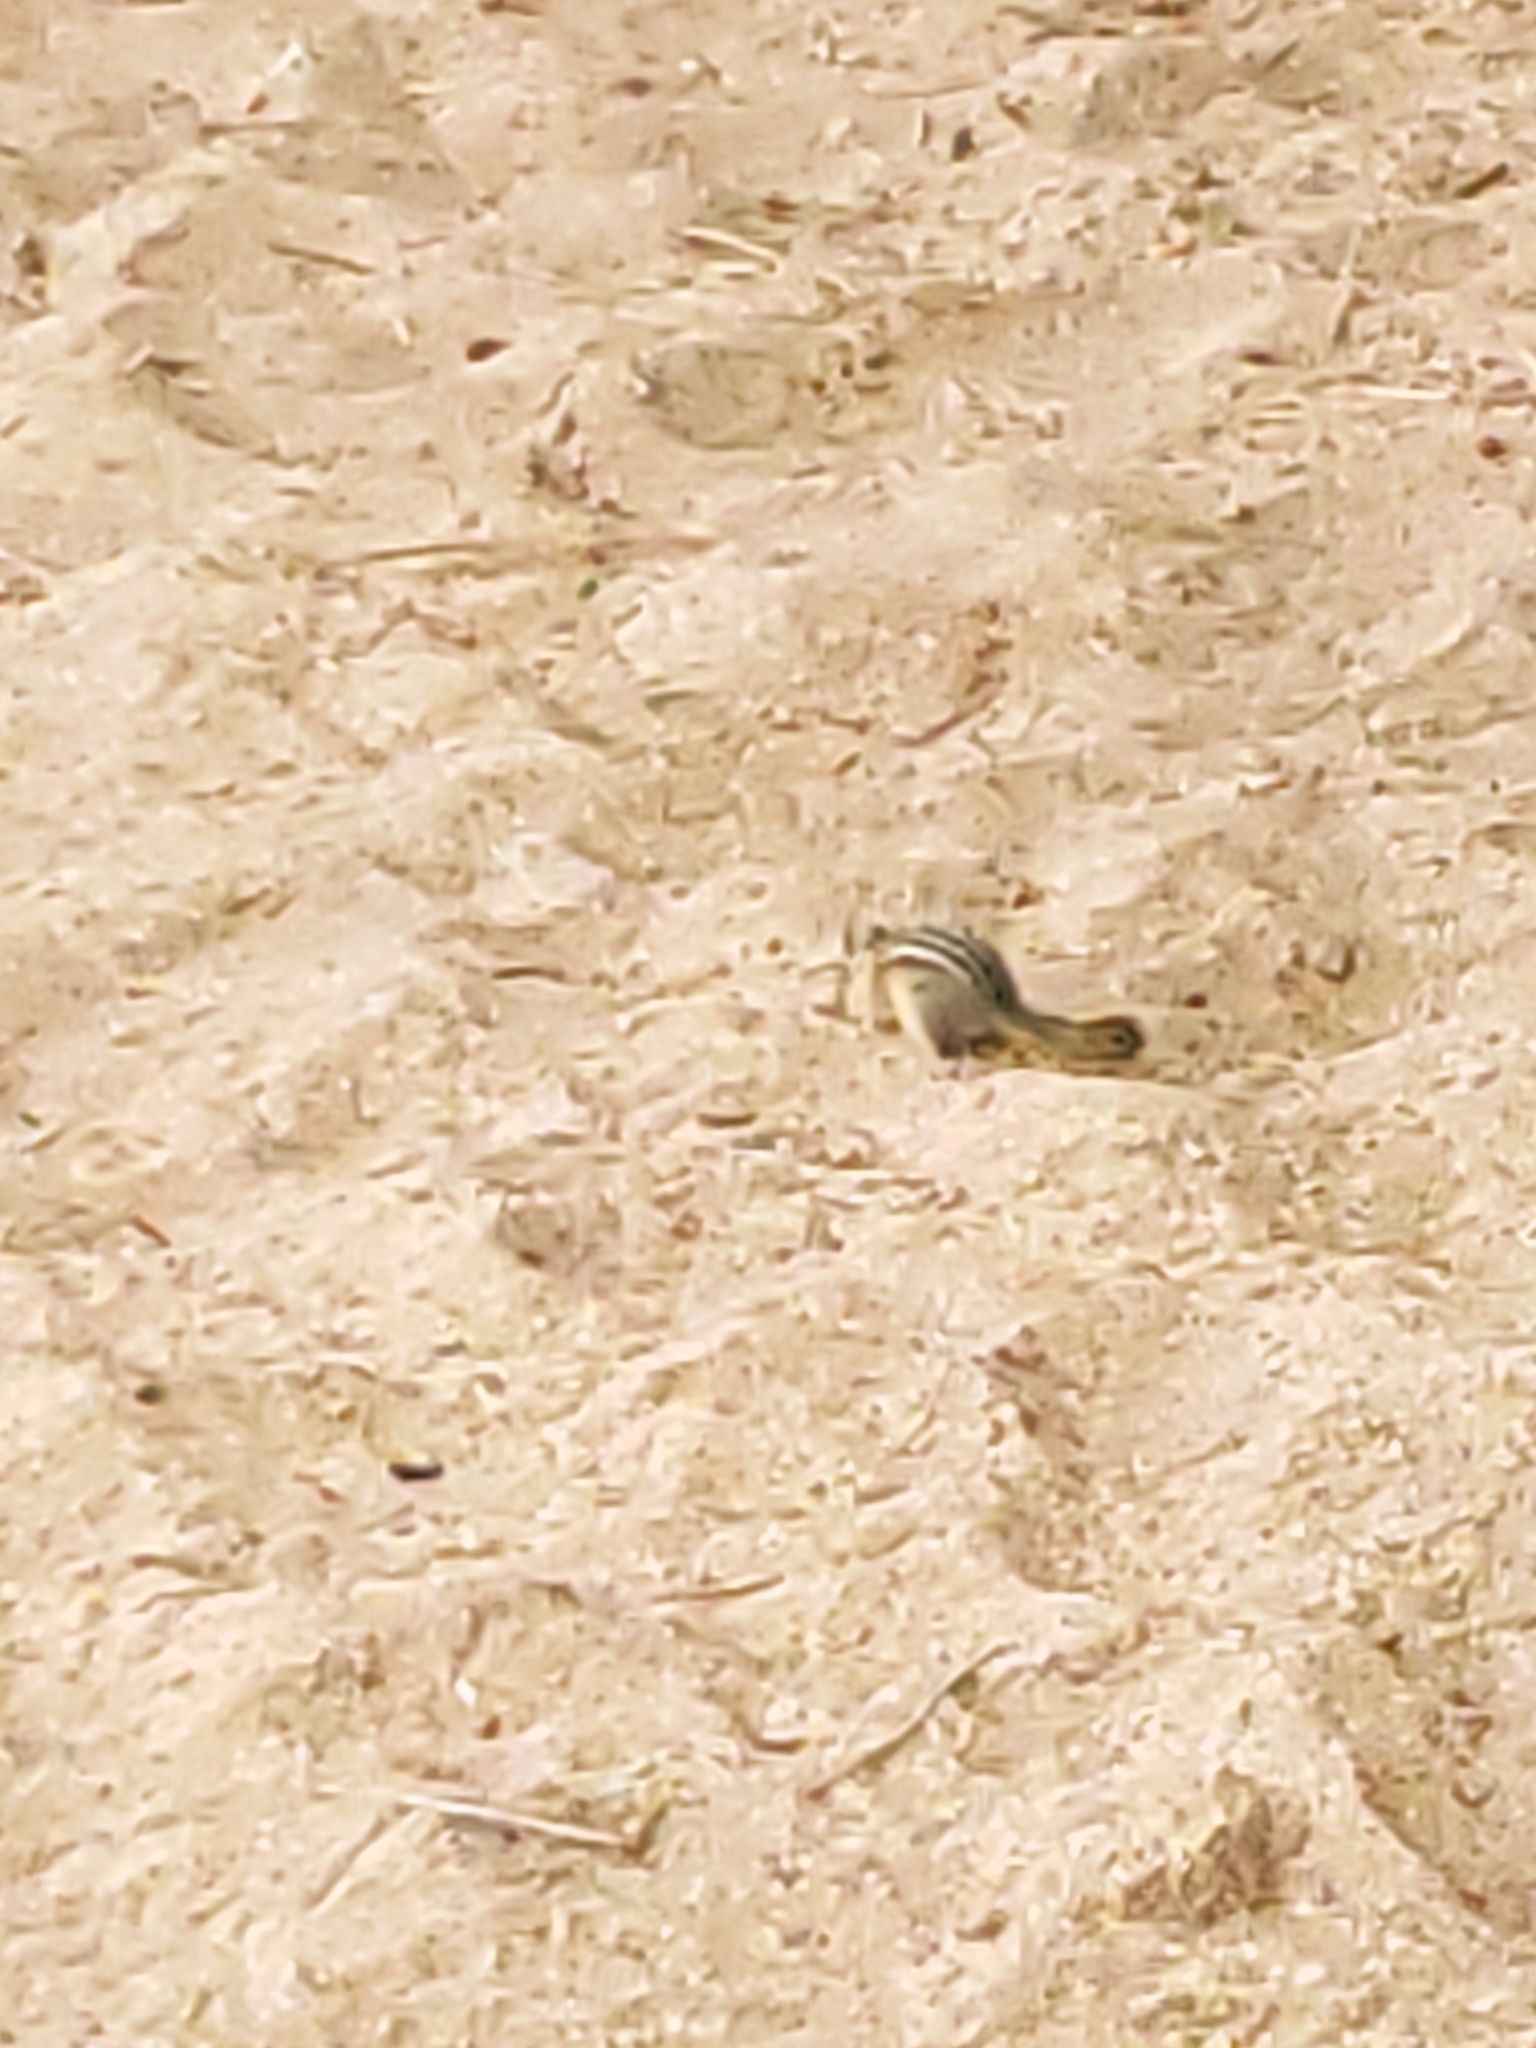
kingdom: Animalia
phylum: Chordata
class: Mammalia
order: Rodentia
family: Sciuridae
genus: Tamias
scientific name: Tamias amoenus
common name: Yellow-pine chipmunk
